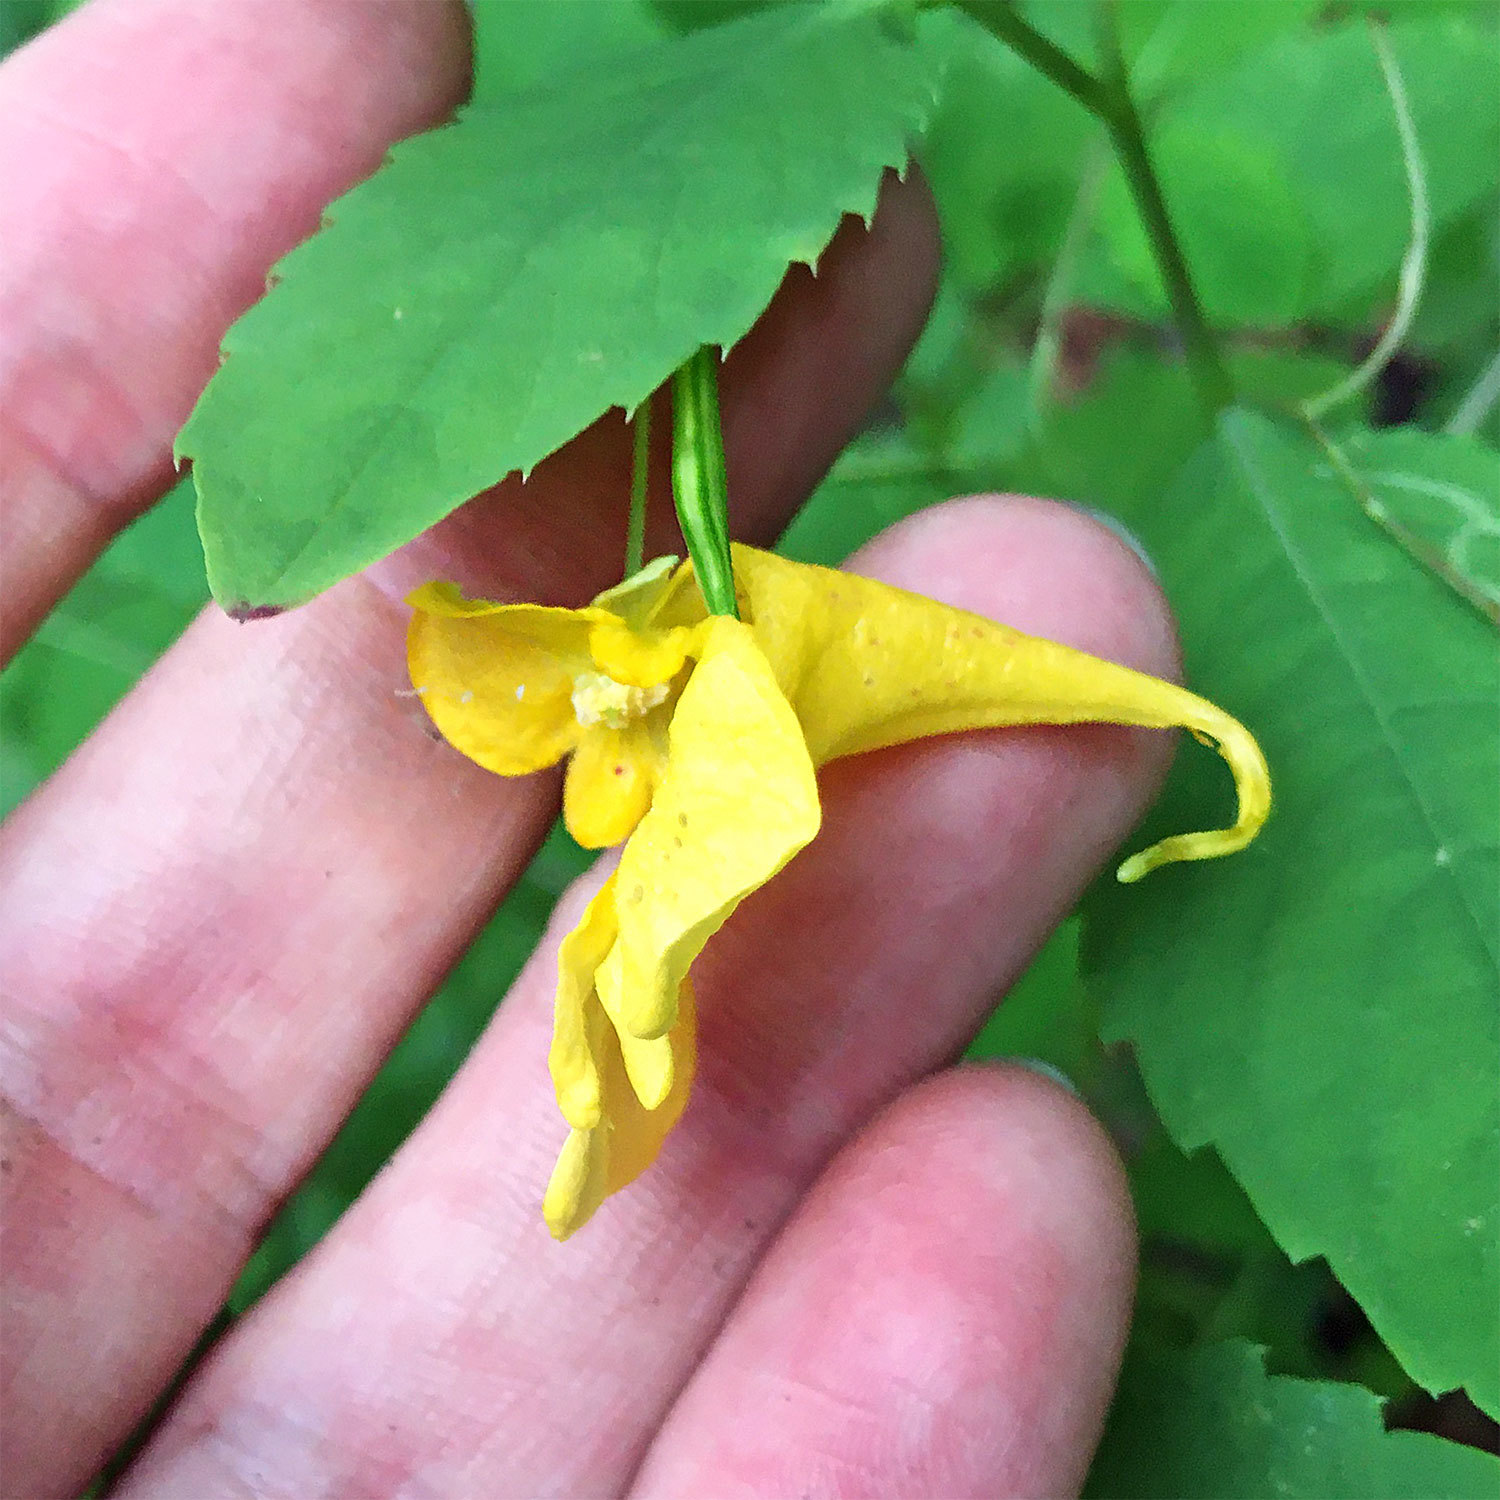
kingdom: Plantae
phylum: Tracheophyta
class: Magnoliopsida
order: Ericales
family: Balsaminaceae
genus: Impatiens
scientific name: Impatiens noli-tangere
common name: Touch-me-not balsam
